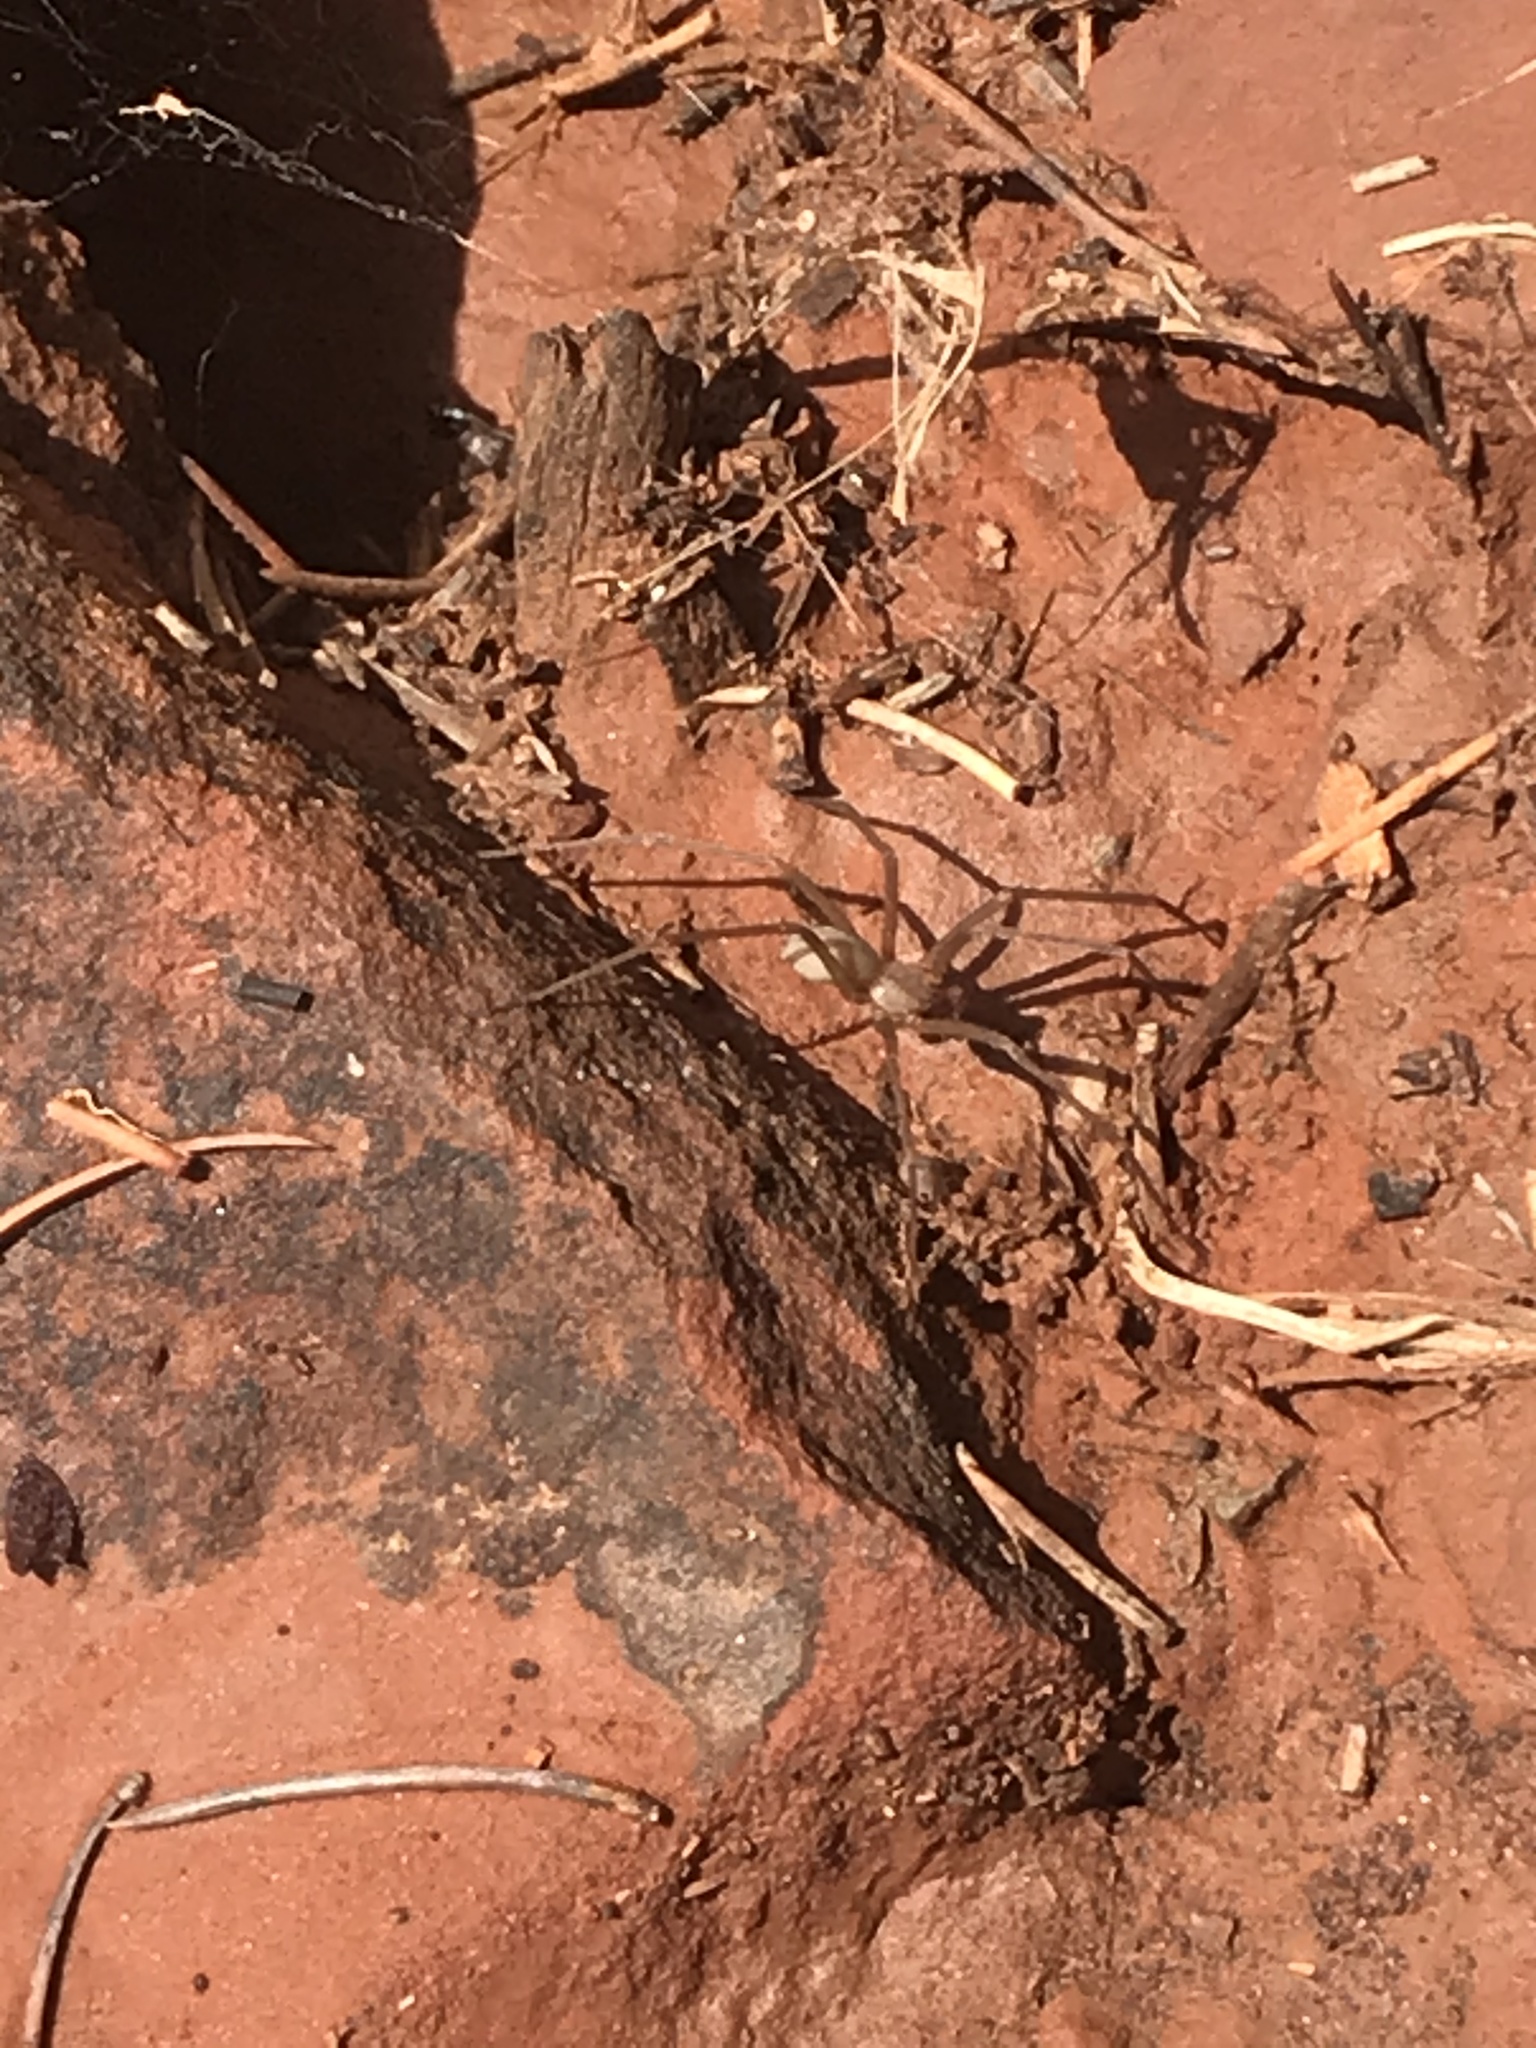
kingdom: Animalia
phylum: Arthropoda
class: Arachnida
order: Araneae
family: Sicariidae
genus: Loxosceles
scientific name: Loxosceles
